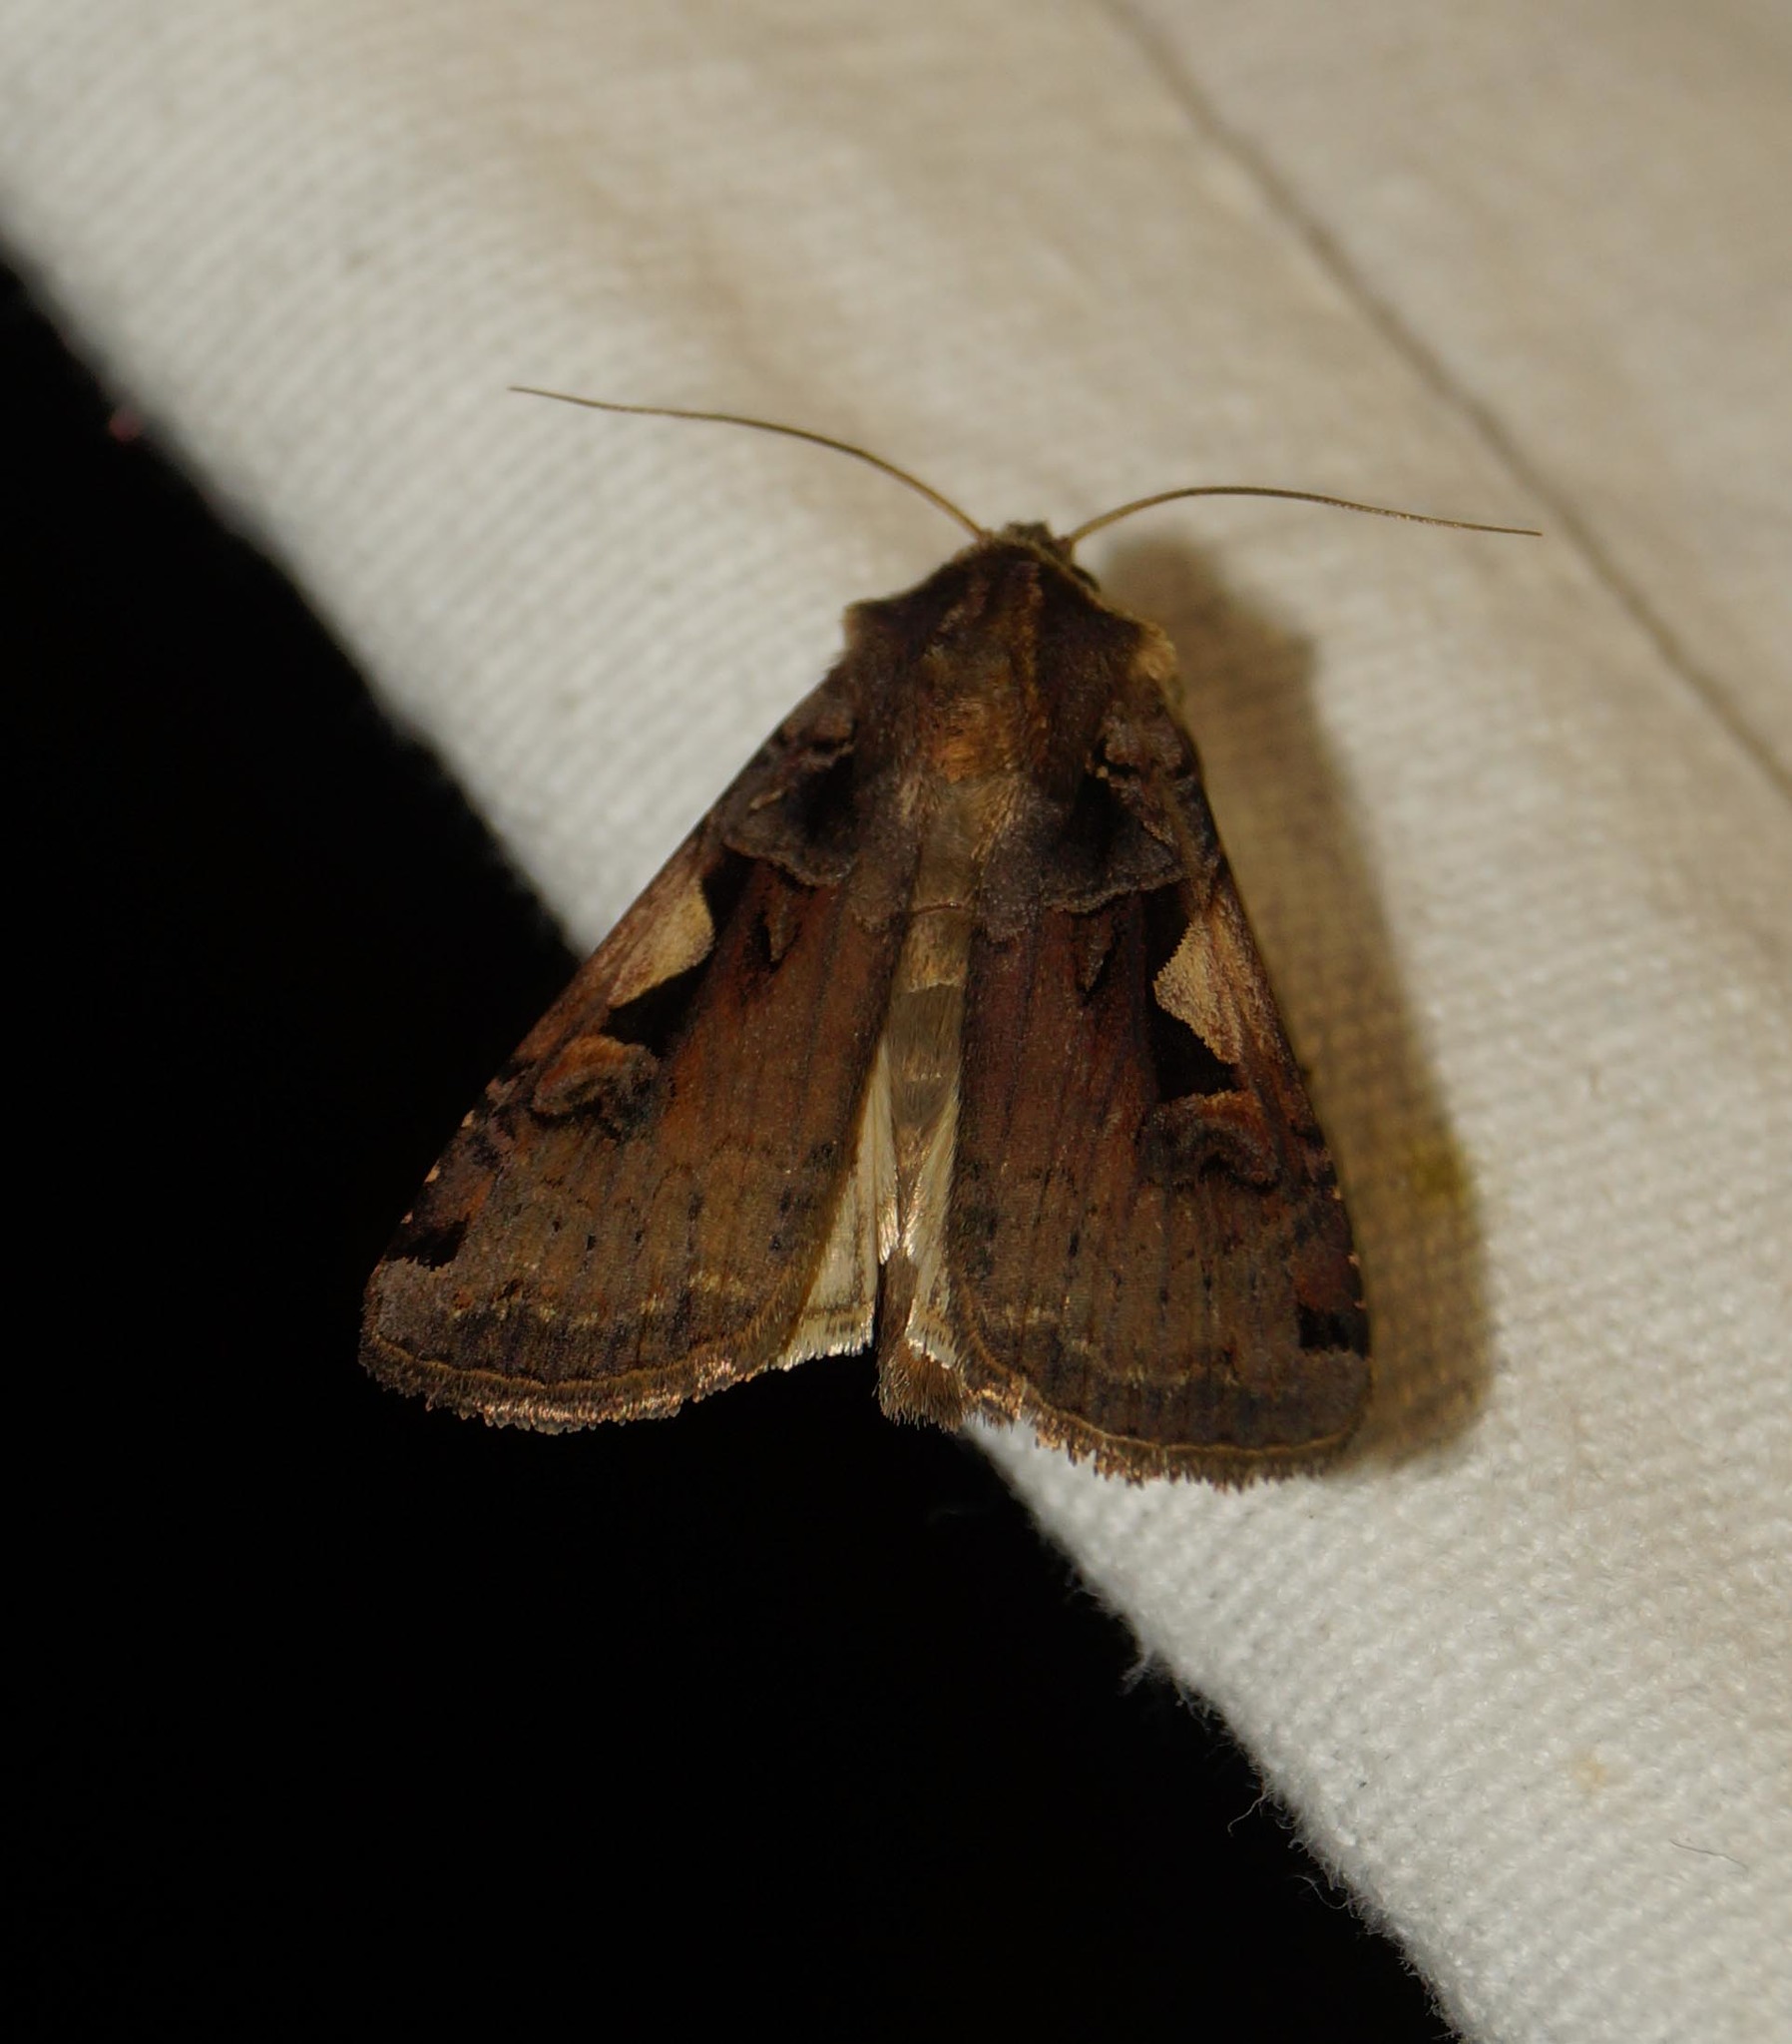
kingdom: Animalia
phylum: Arthropoda
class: Insecta
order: Lepidoptera
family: Noctuidae
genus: Xestia
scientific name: Xestia c-nigrum
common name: Setaceous hebrew character
